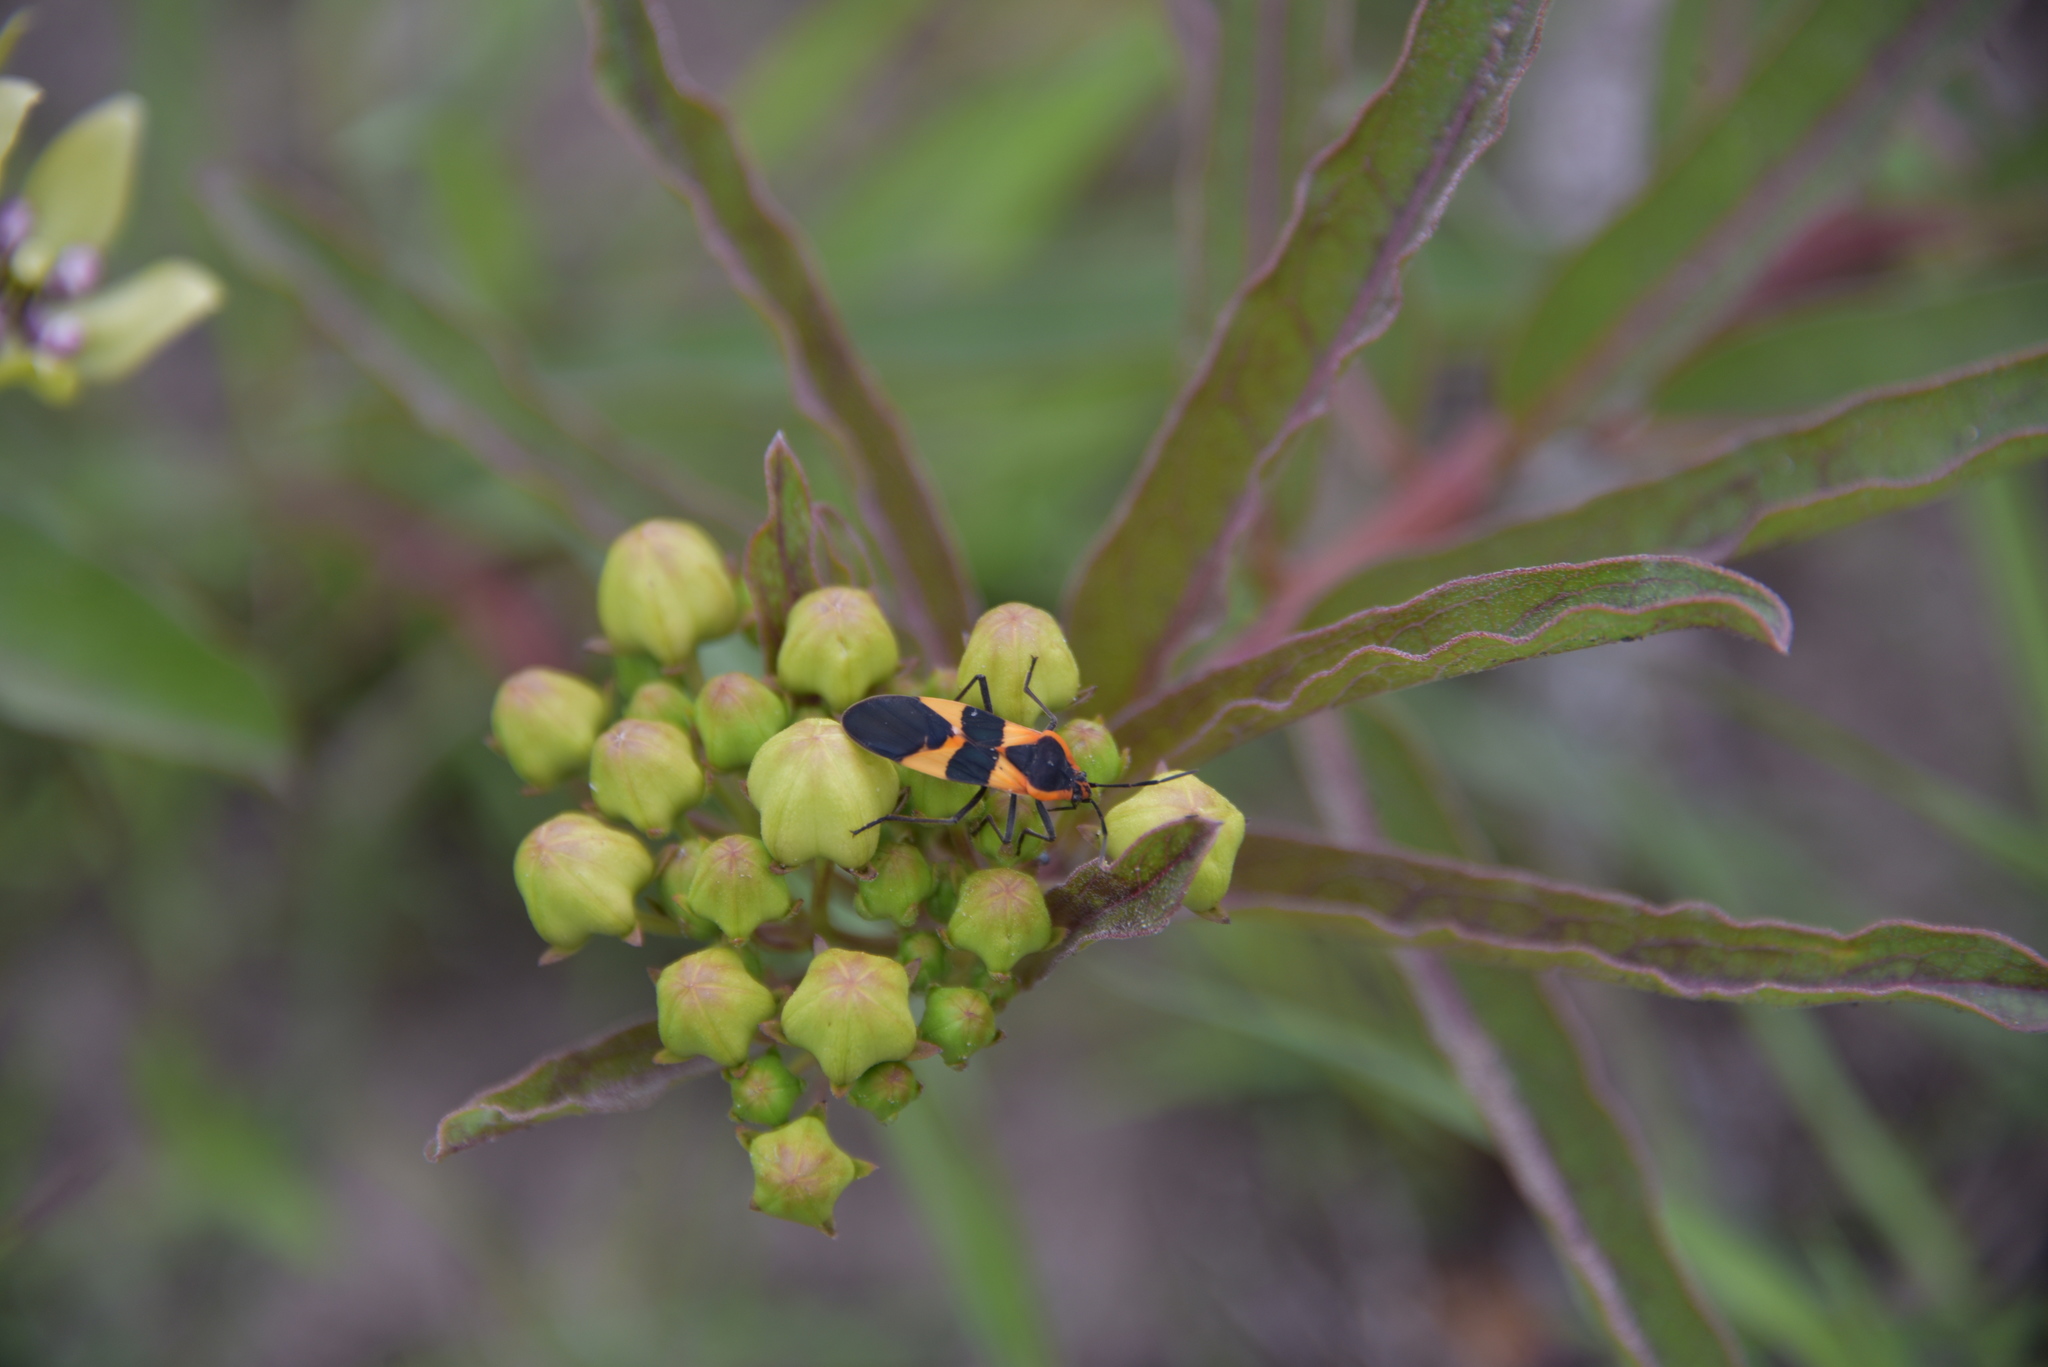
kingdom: Animalia
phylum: Arthropoda
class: Insecta
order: Hemiptera
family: Lygaeidae
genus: Oncopeltus
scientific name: Oncopeltus fasciatus
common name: Large milkweed bug
